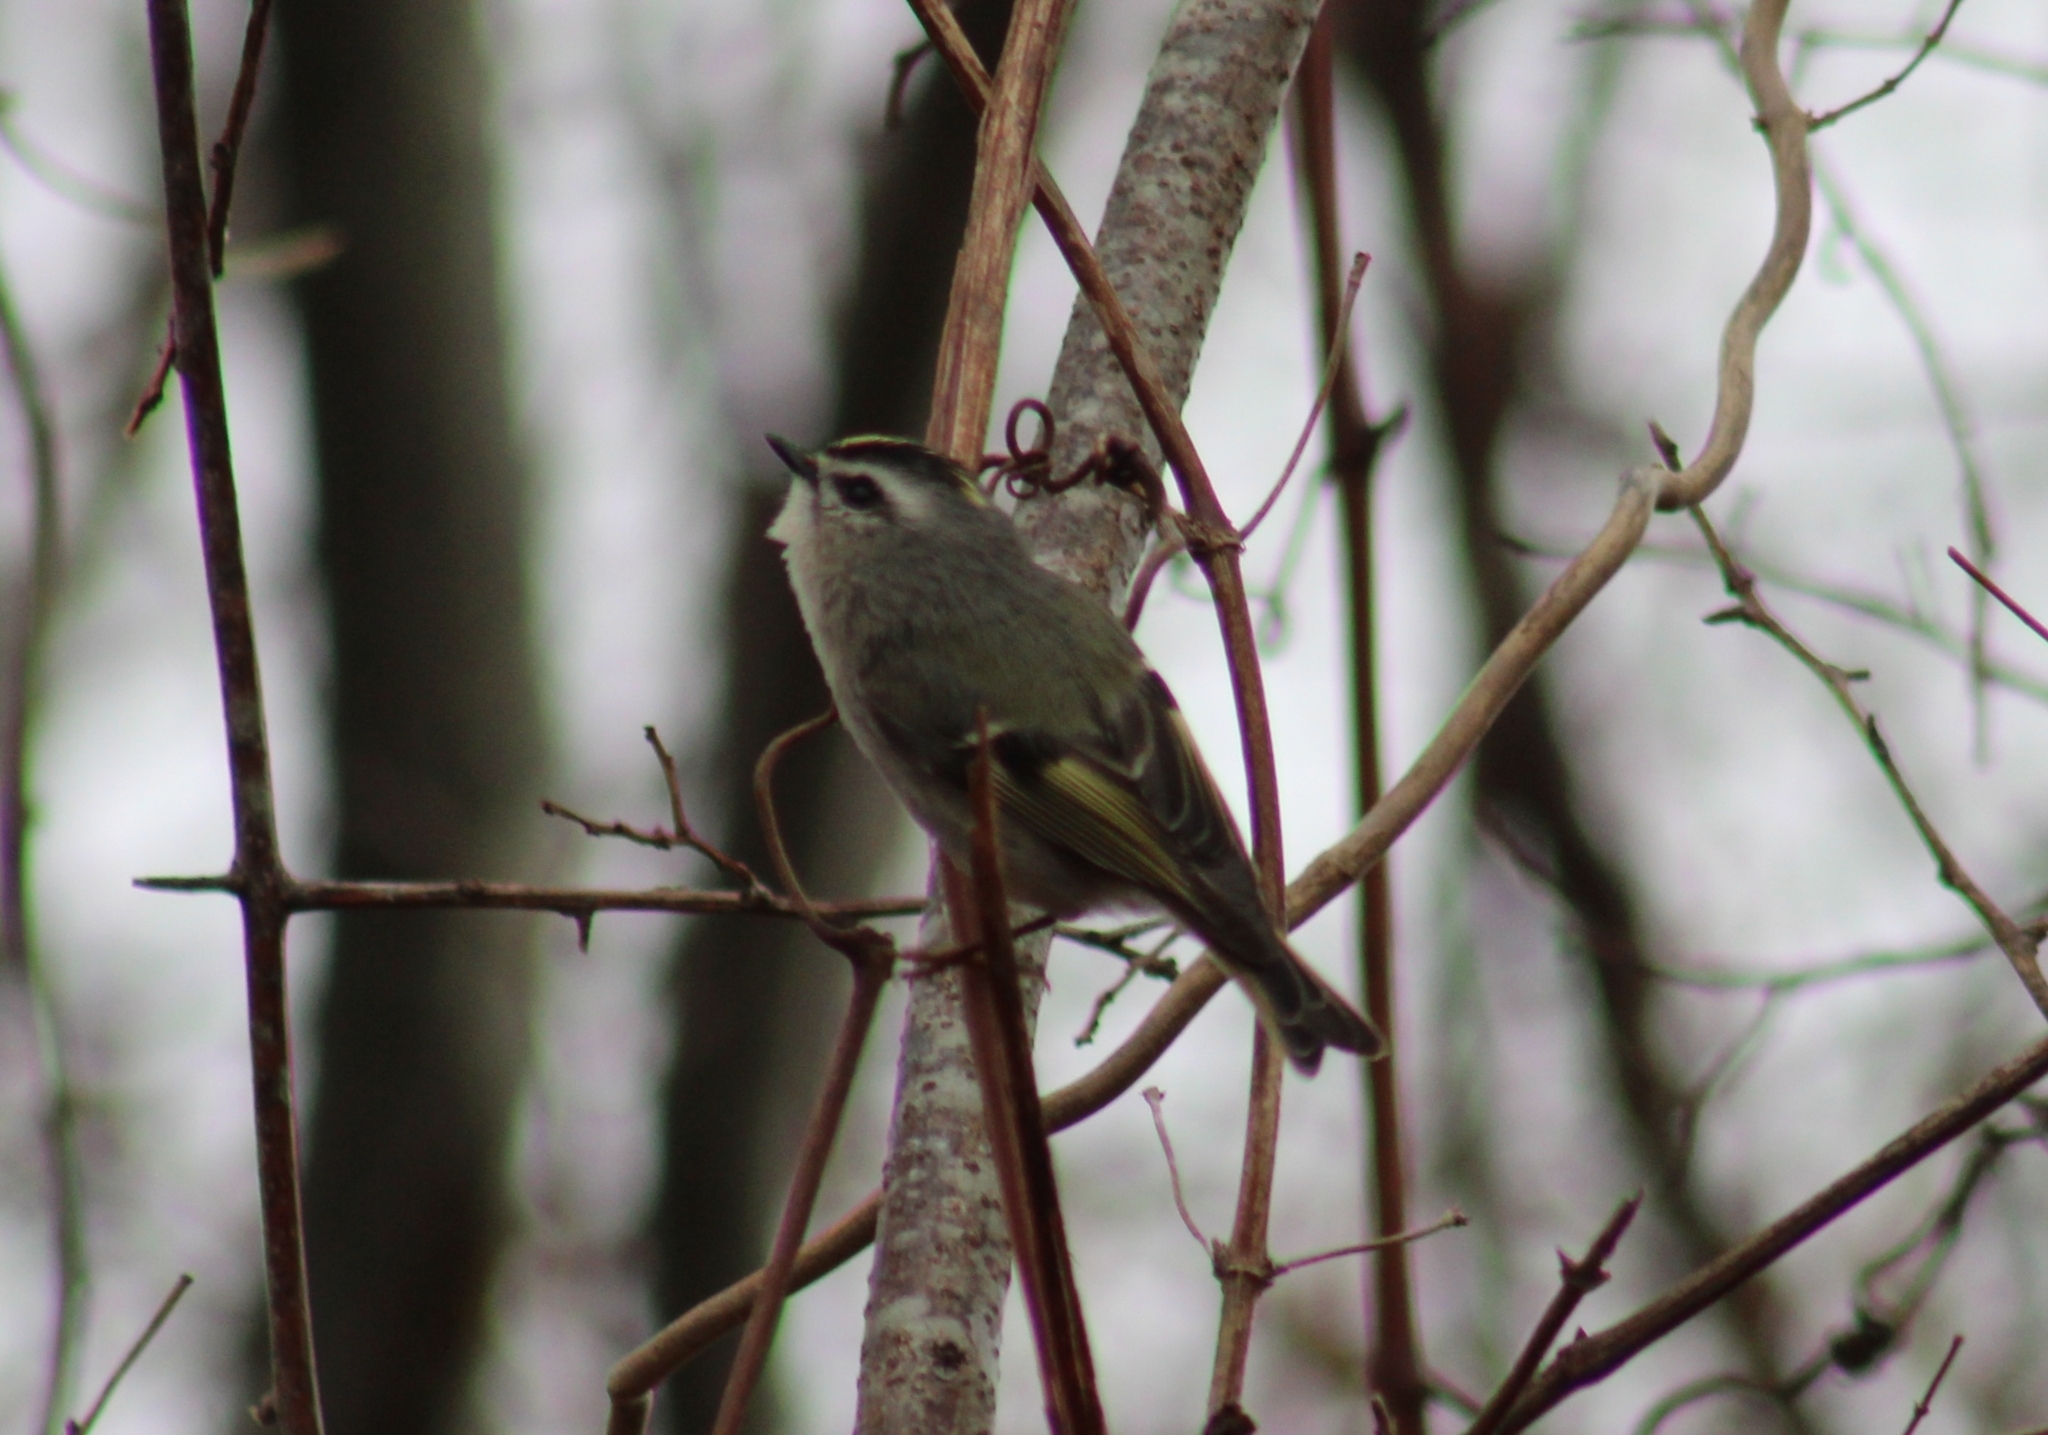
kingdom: Animalia
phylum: Chordata
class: Aves
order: Passeriformes
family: Regulidae
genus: Regulus
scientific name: Regulus satrapa
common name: Golden-crowned kinglet
